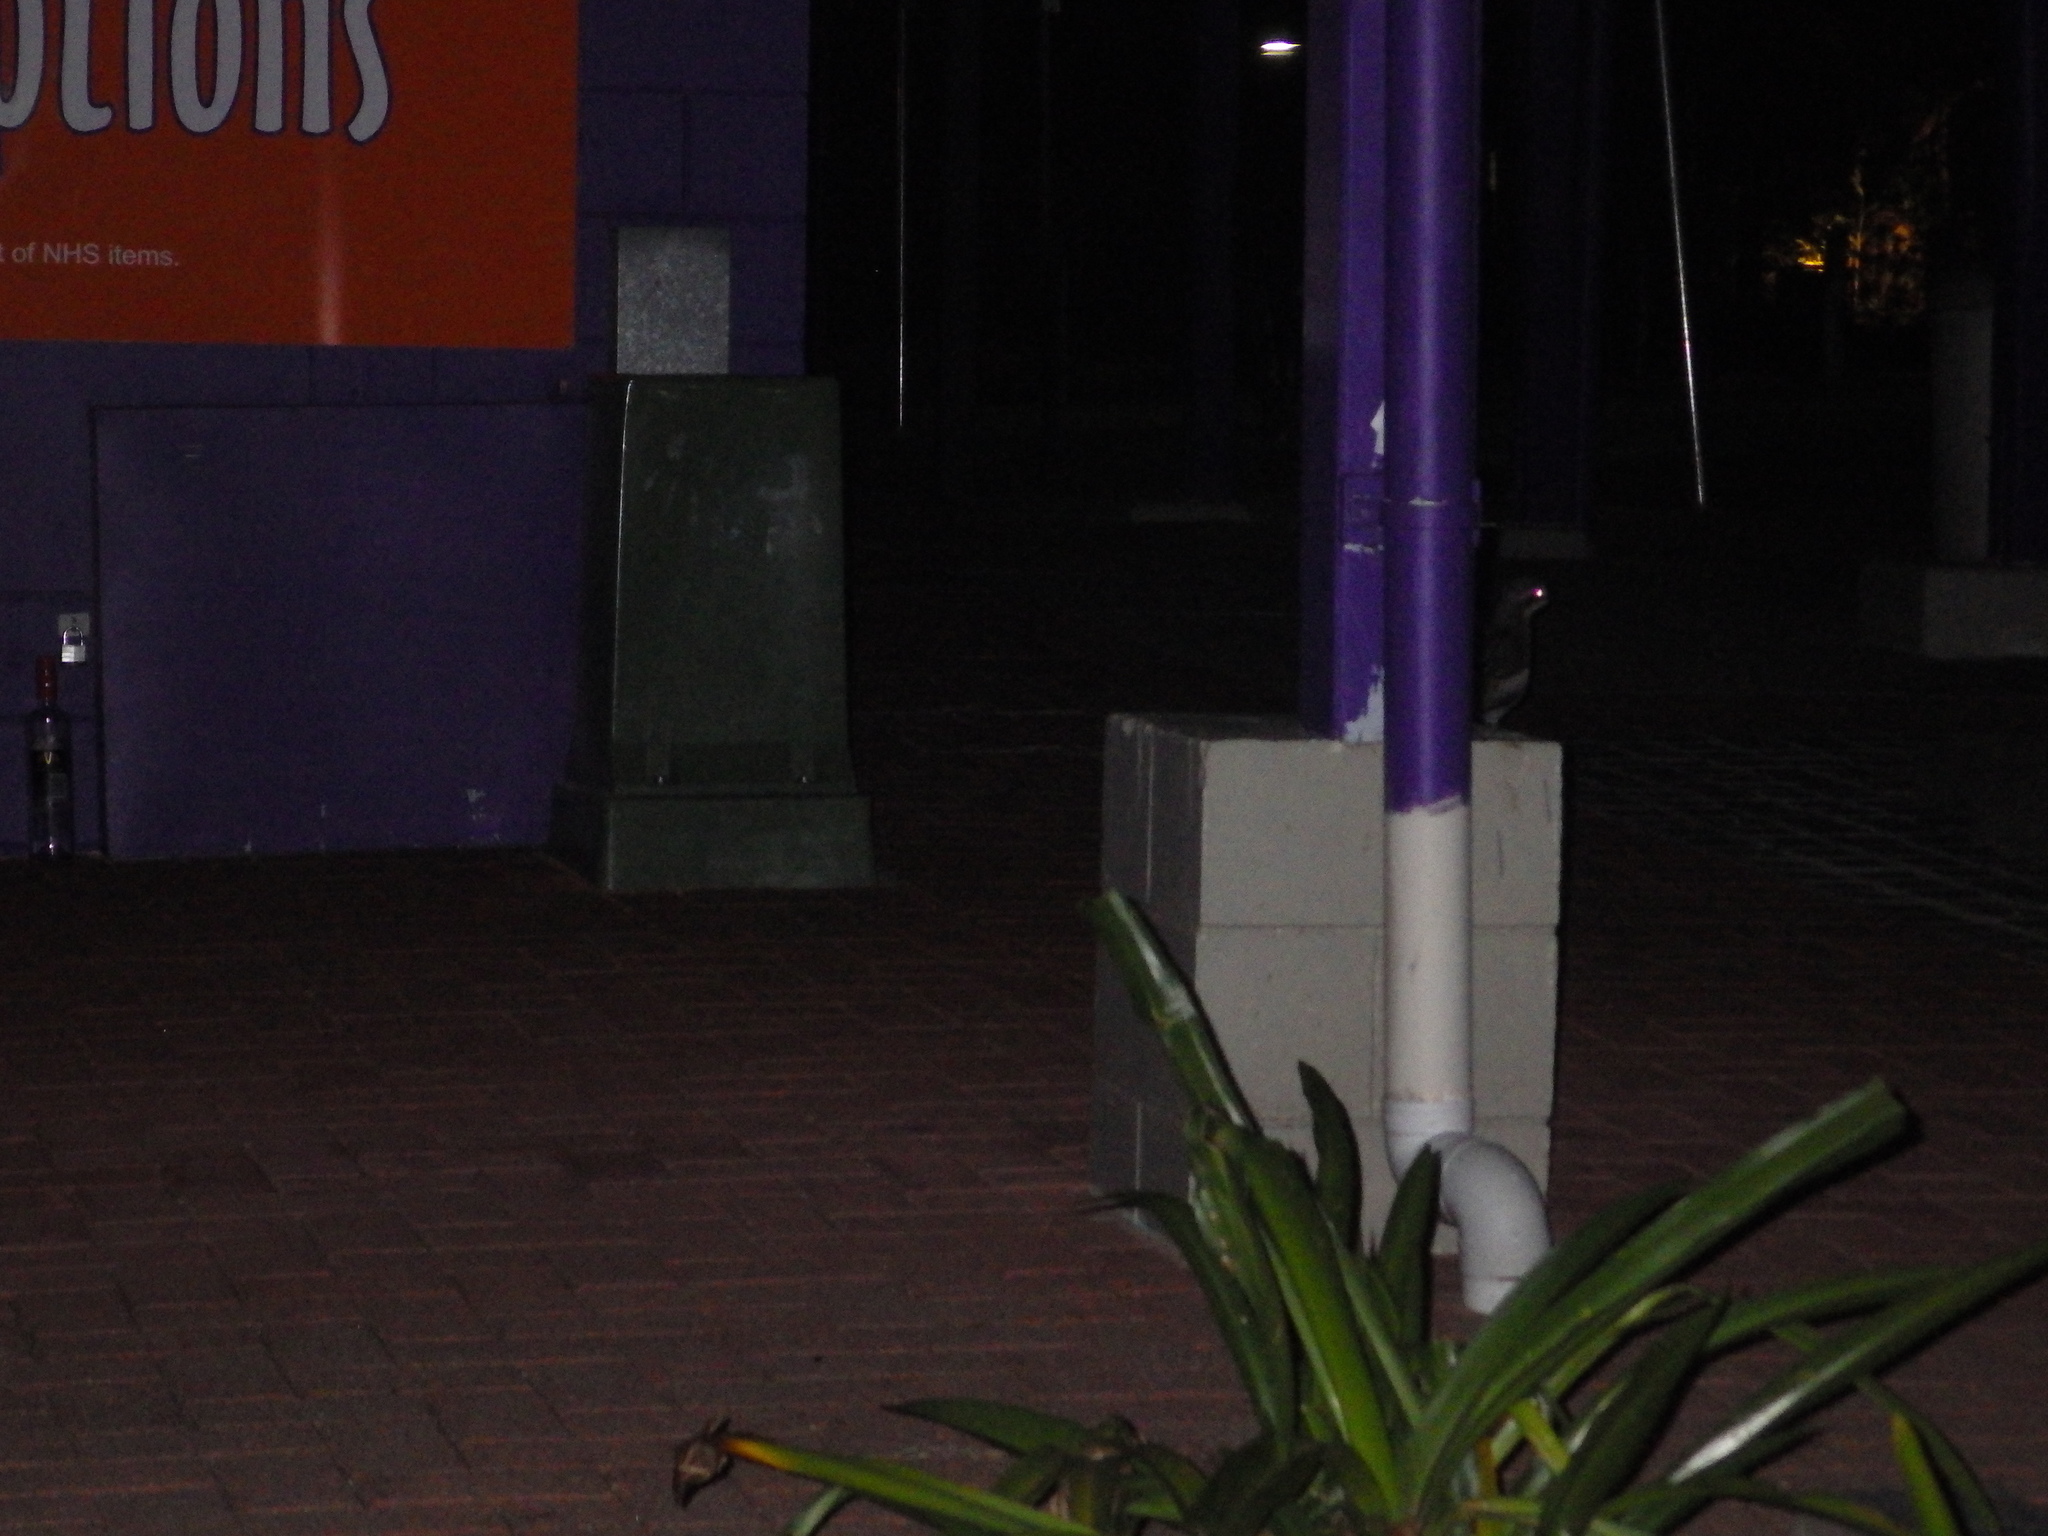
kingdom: Animalia
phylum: Chordata
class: Aves
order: Charadriiformes
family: Burhinidae
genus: Burhinus
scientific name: Burhinus grallarius
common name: Bush stone-curlew
